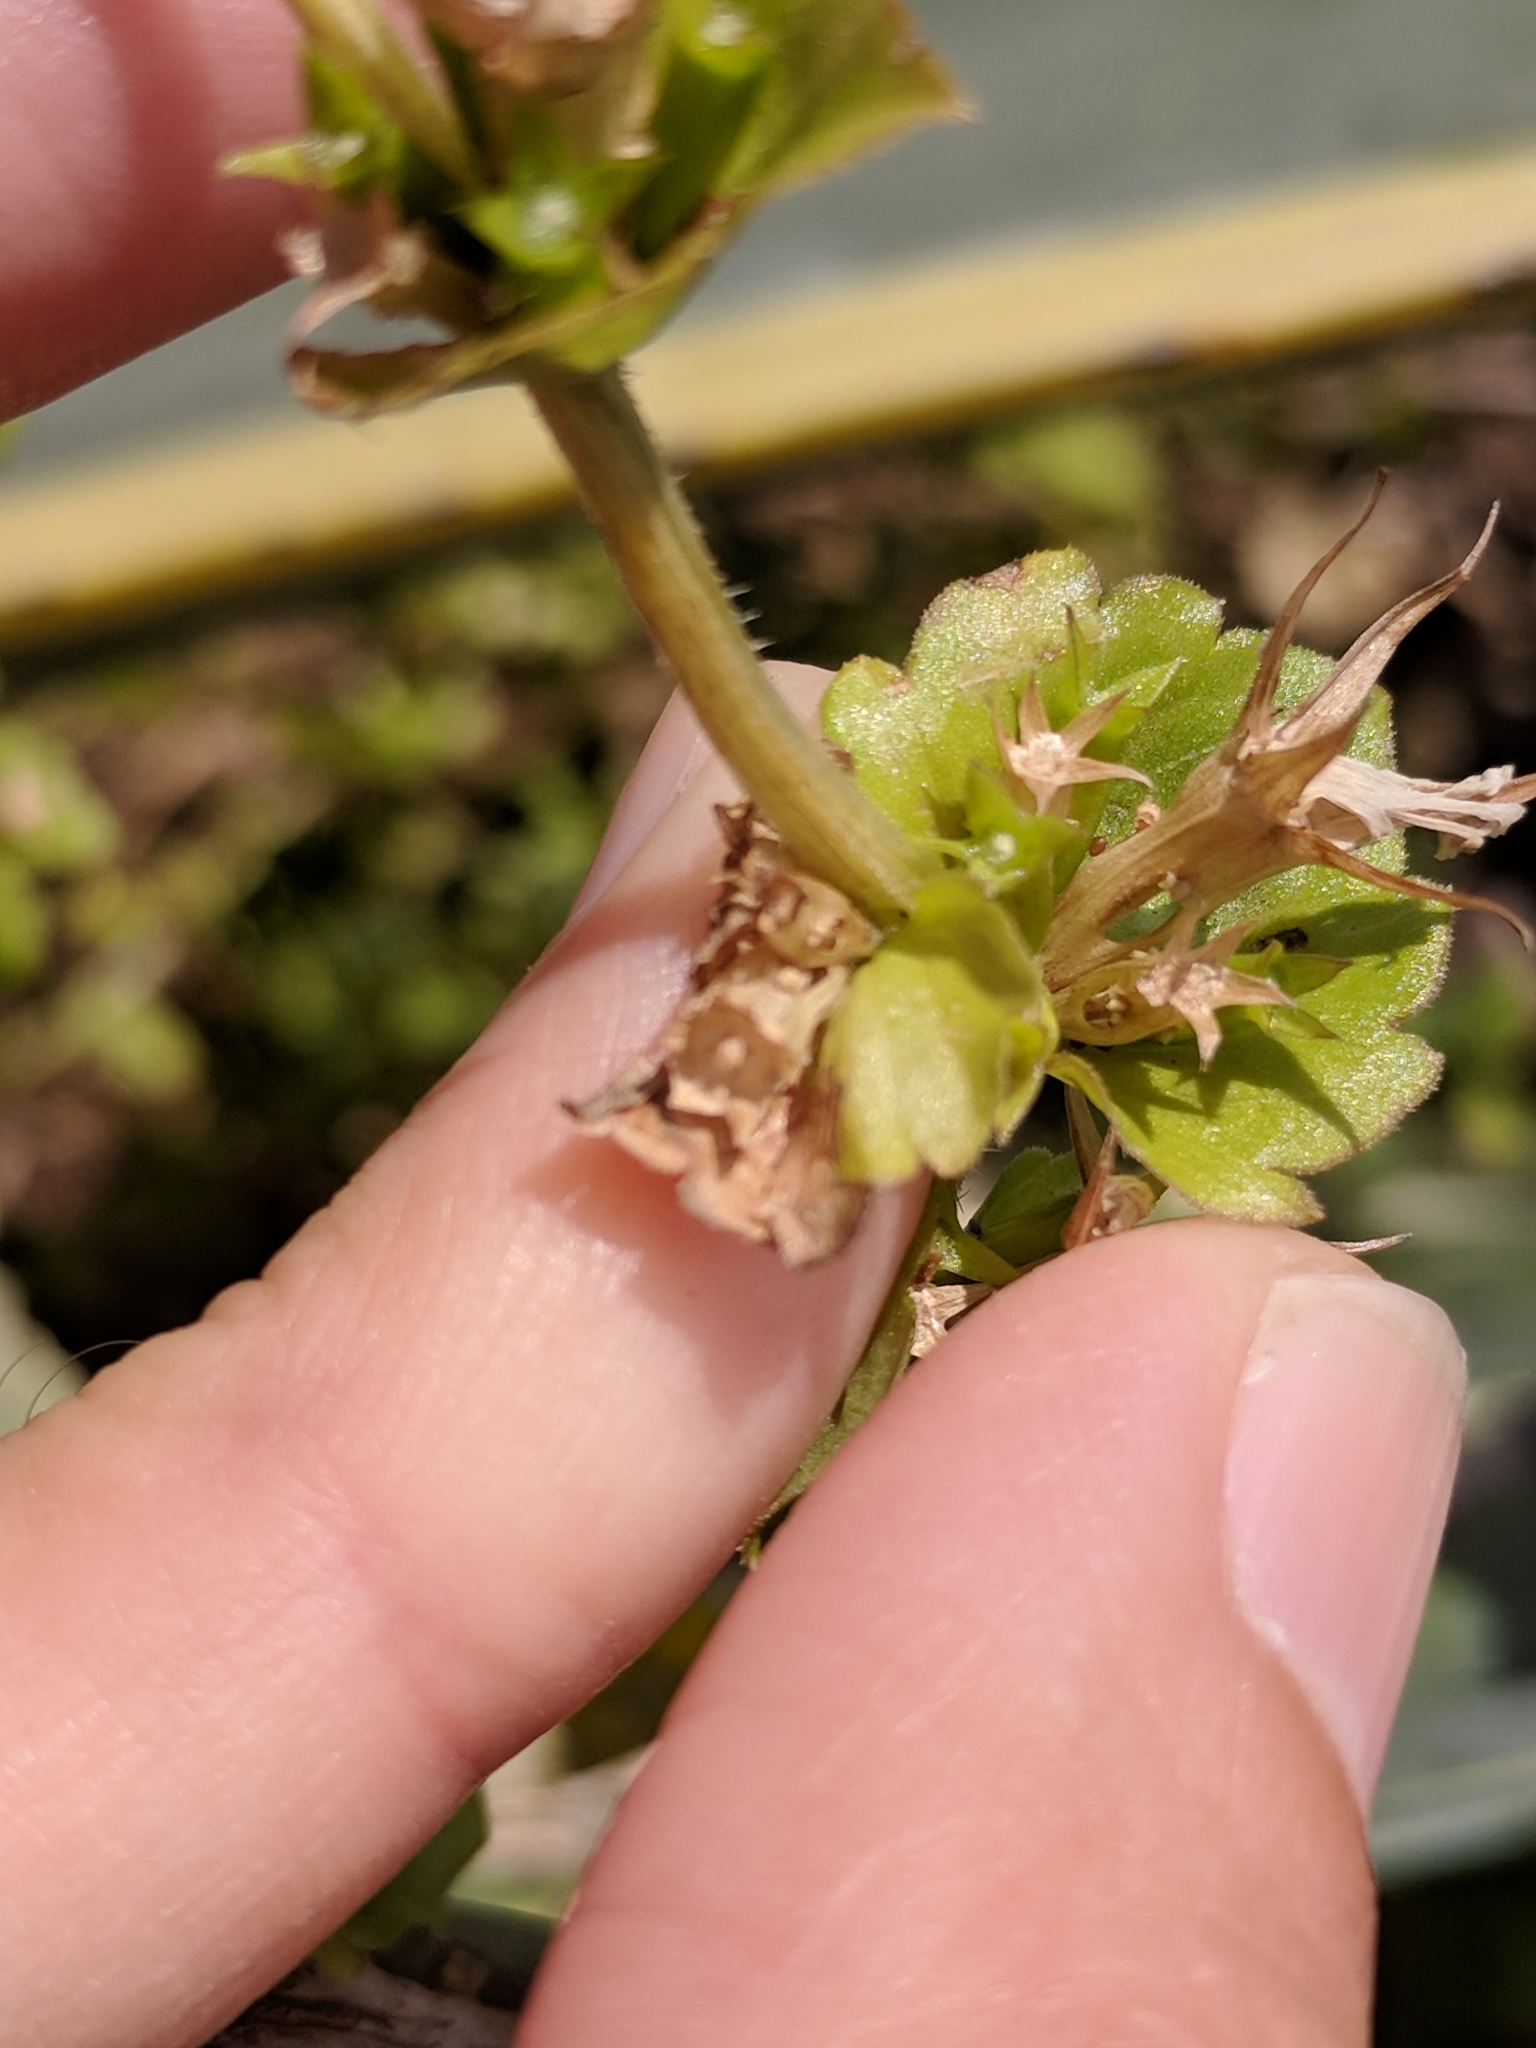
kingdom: Plantae
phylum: Tracheophyta
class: Magnoliopsida
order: Asterales
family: Campanulaceae
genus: Triodanis
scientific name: Triodanis perfoliata
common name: Clasping venus' looking-glass
